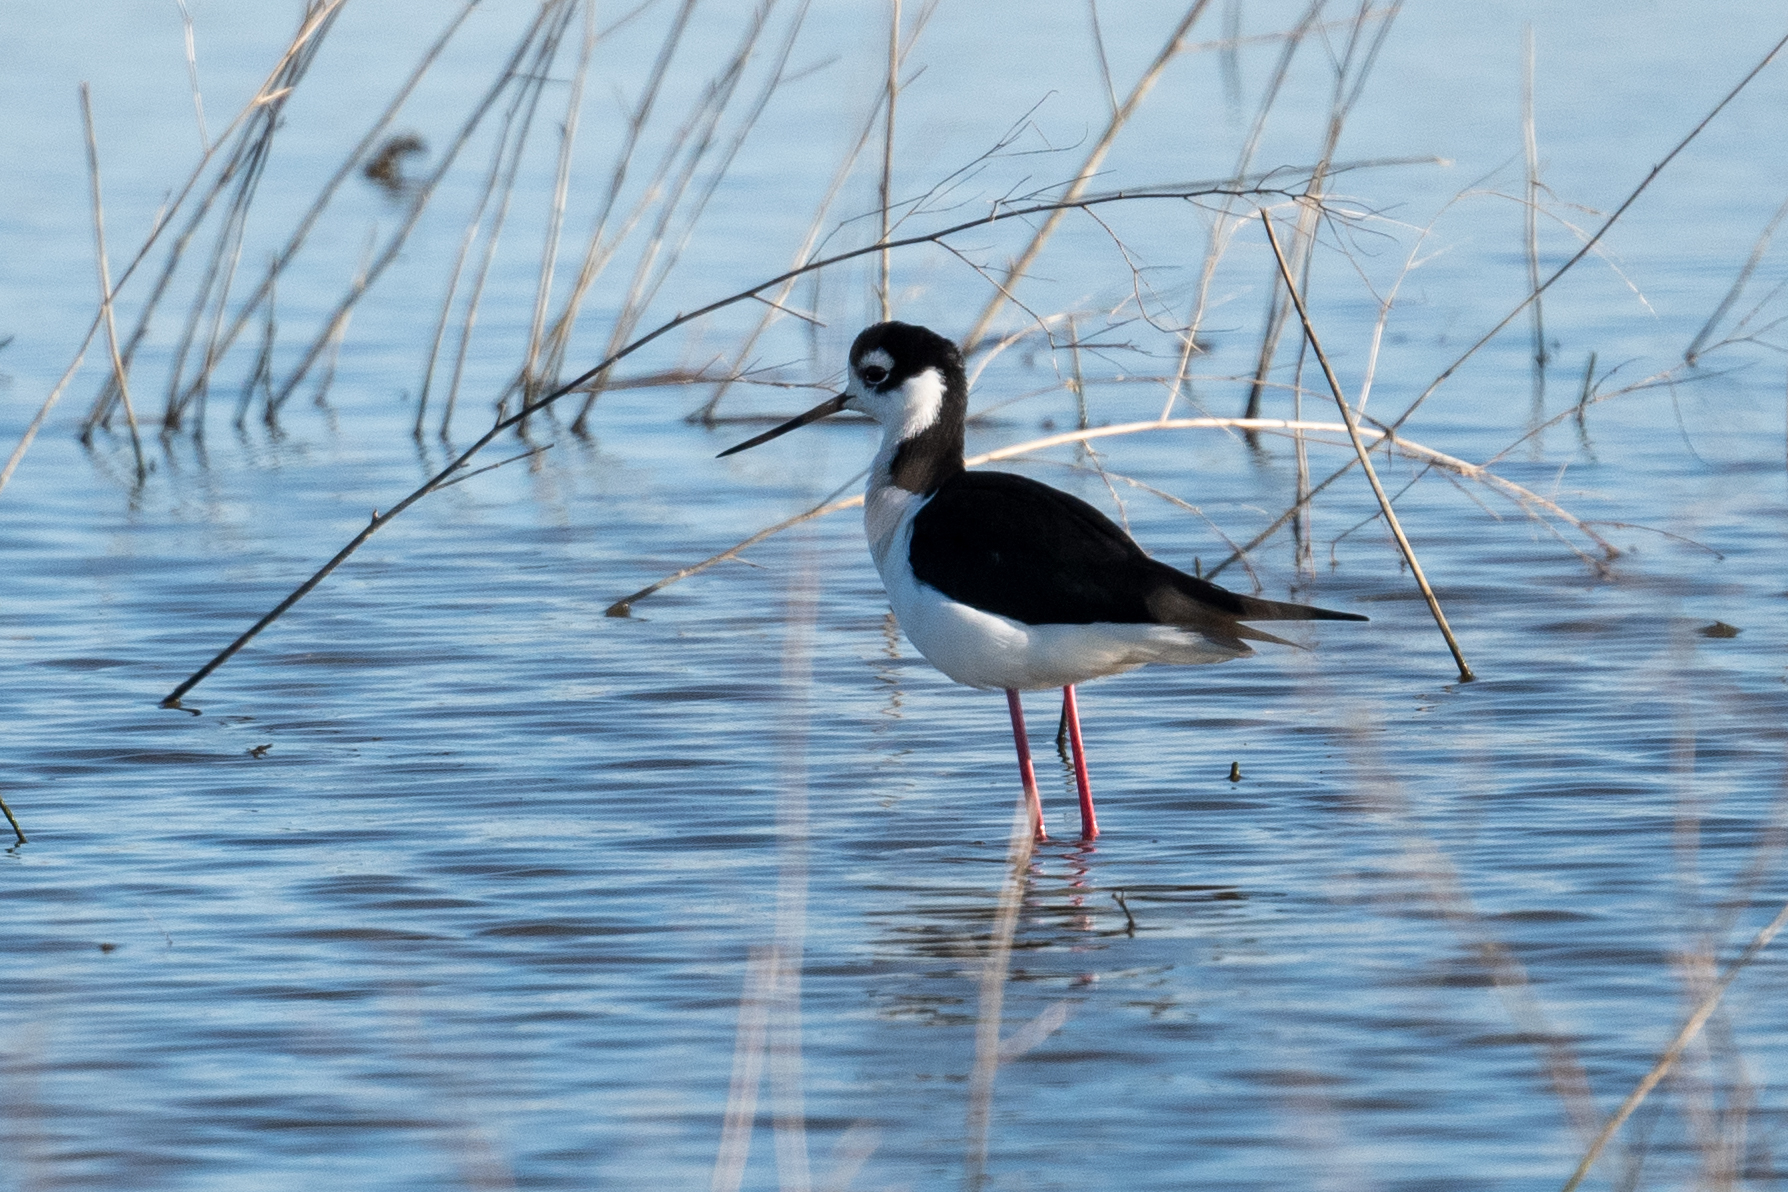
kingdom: Animalia
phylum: Chordata
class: Aves
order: Charadriiformes
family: Recurvirostridae
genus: Himantopus
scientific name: Himantopus mexicanus
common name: Black-necked stilt
